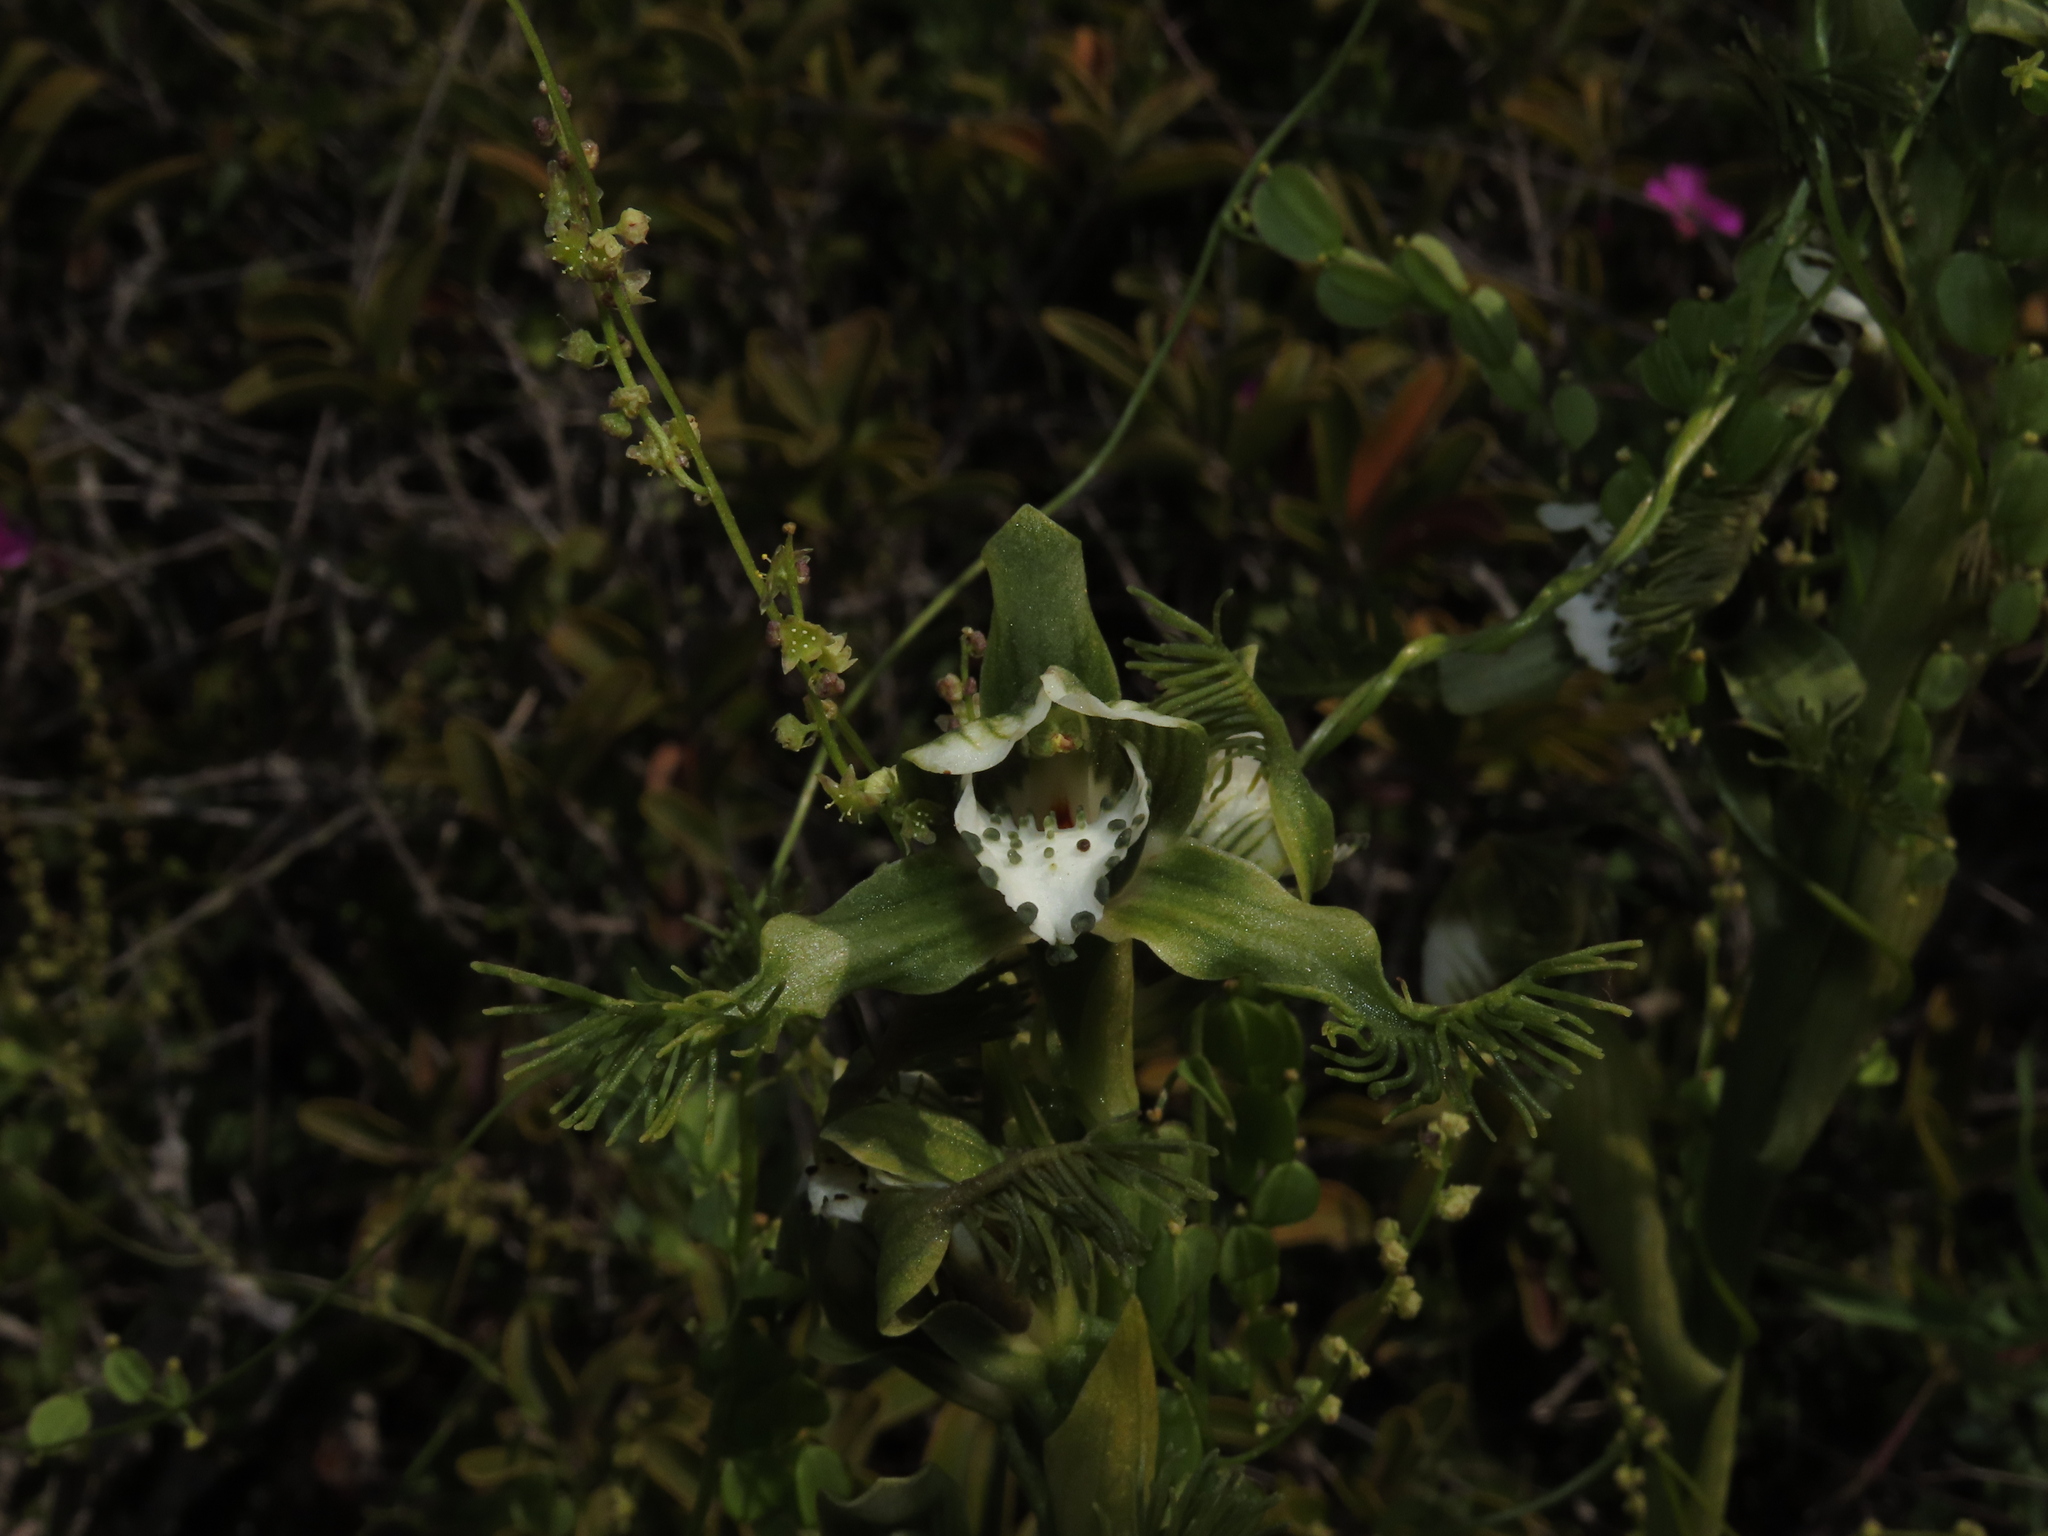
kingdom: Plantae
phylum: Tracheophyta
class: Liliopsida
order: Asparagales
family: Orchidaceae
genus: Bipinnula
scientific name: Bipinnula fimbriata
